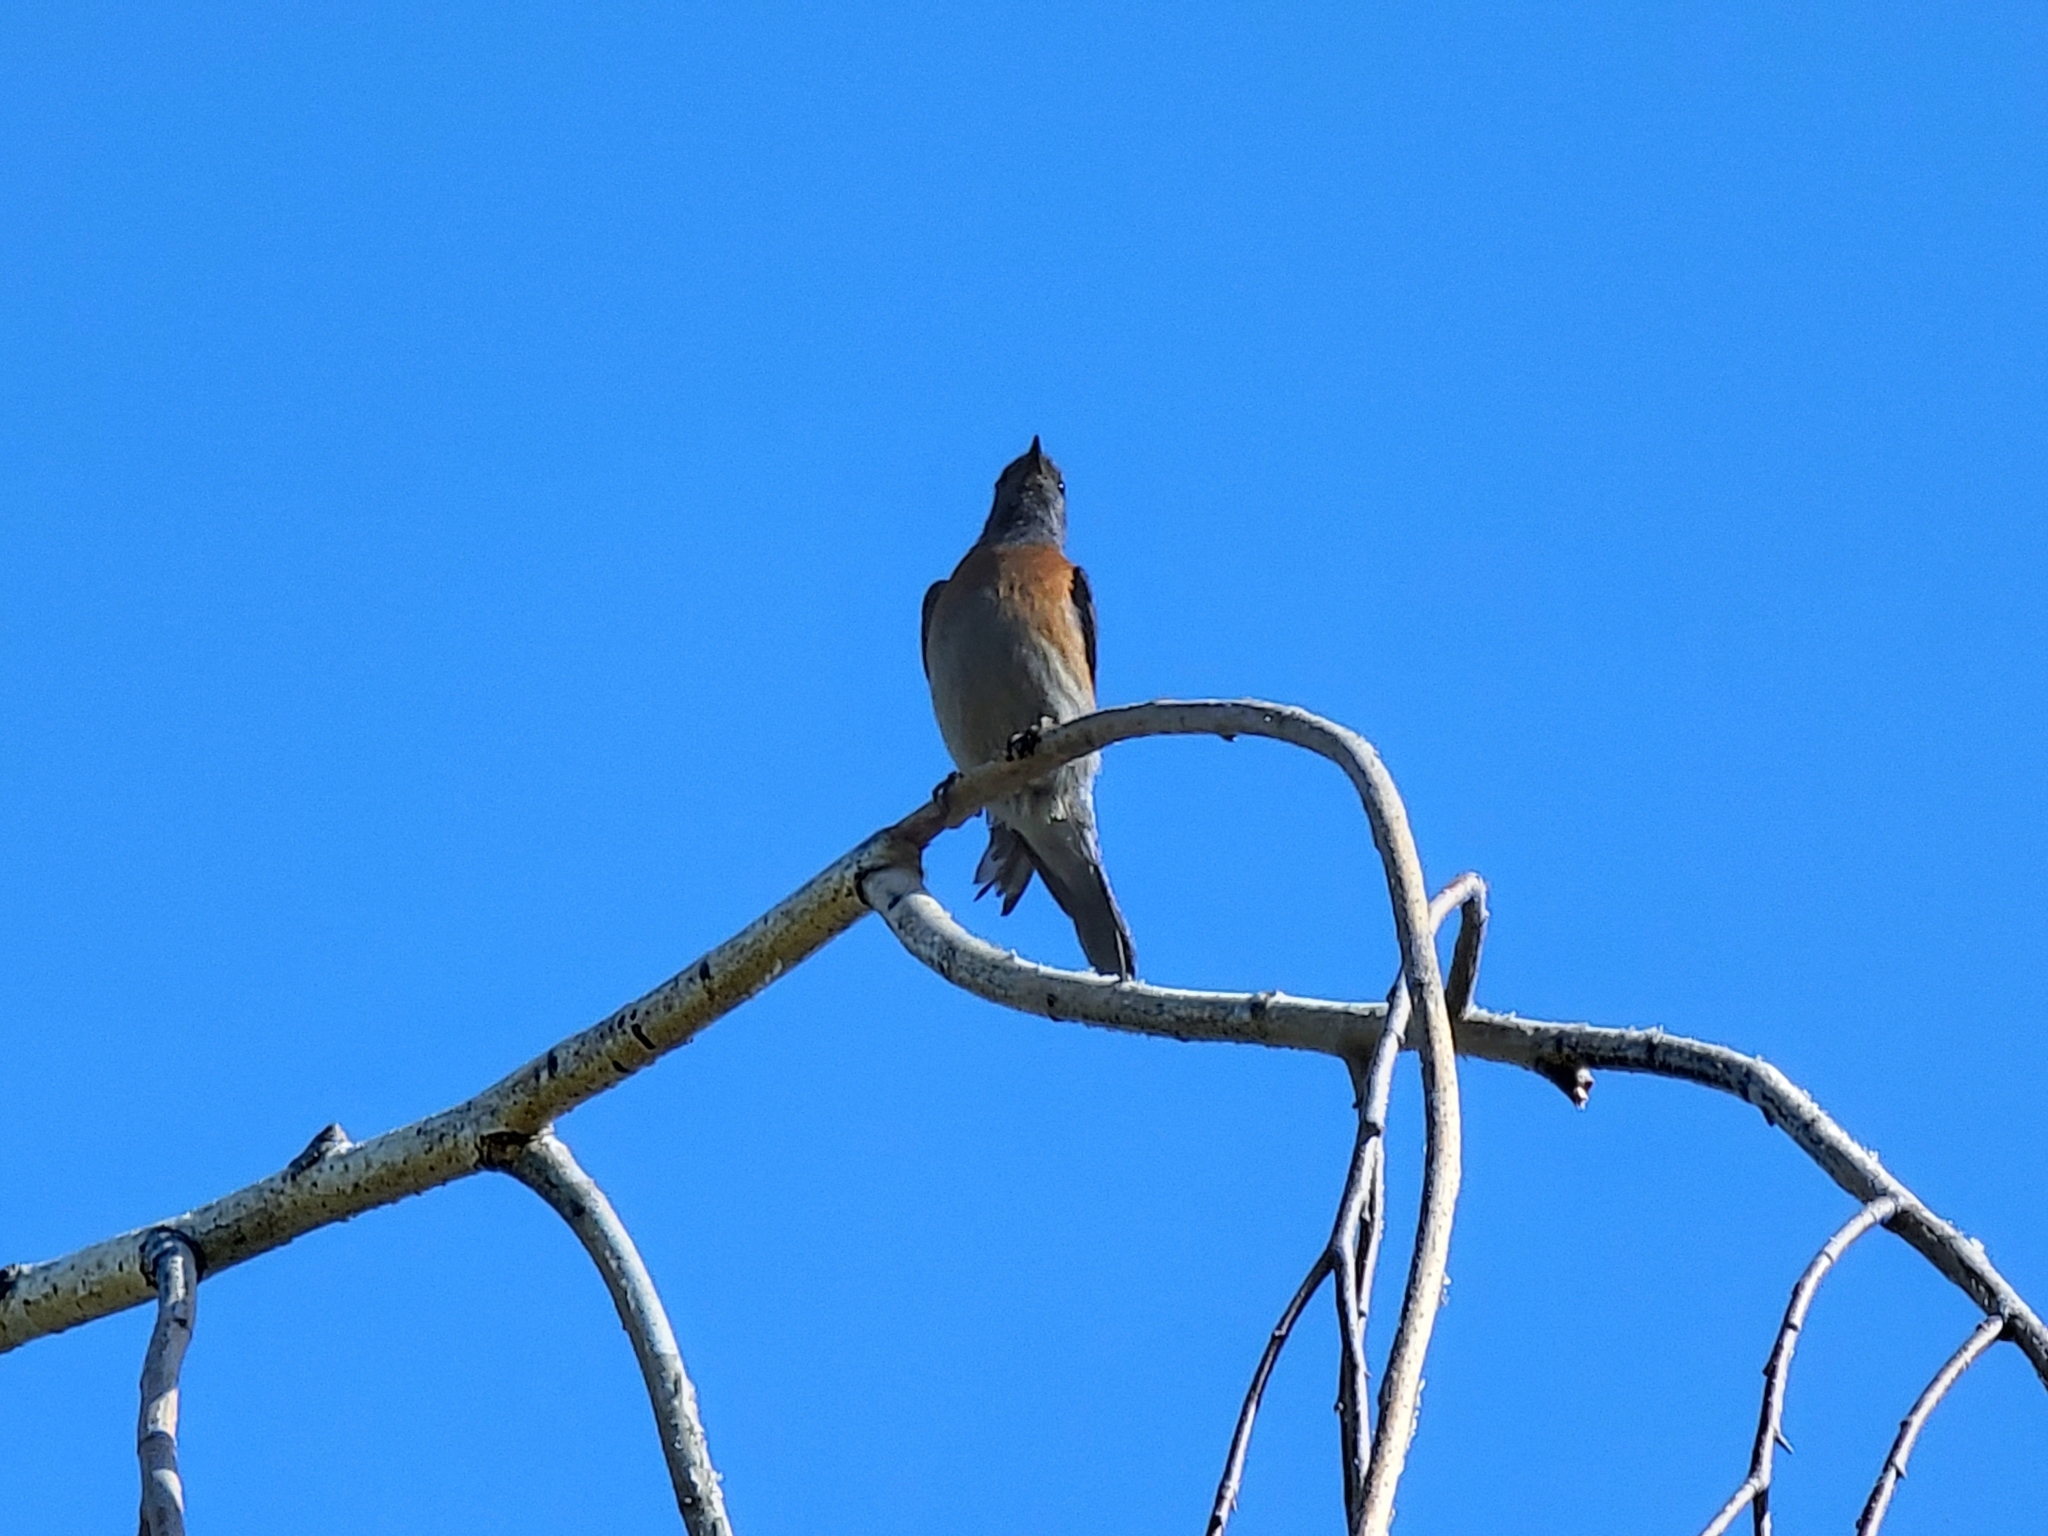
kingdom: Animalia
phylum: Chordata
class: Aves
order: Passeriformes
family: Turdidae
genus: Sialia
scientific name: Sialia mexicana
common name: Western bluebird
